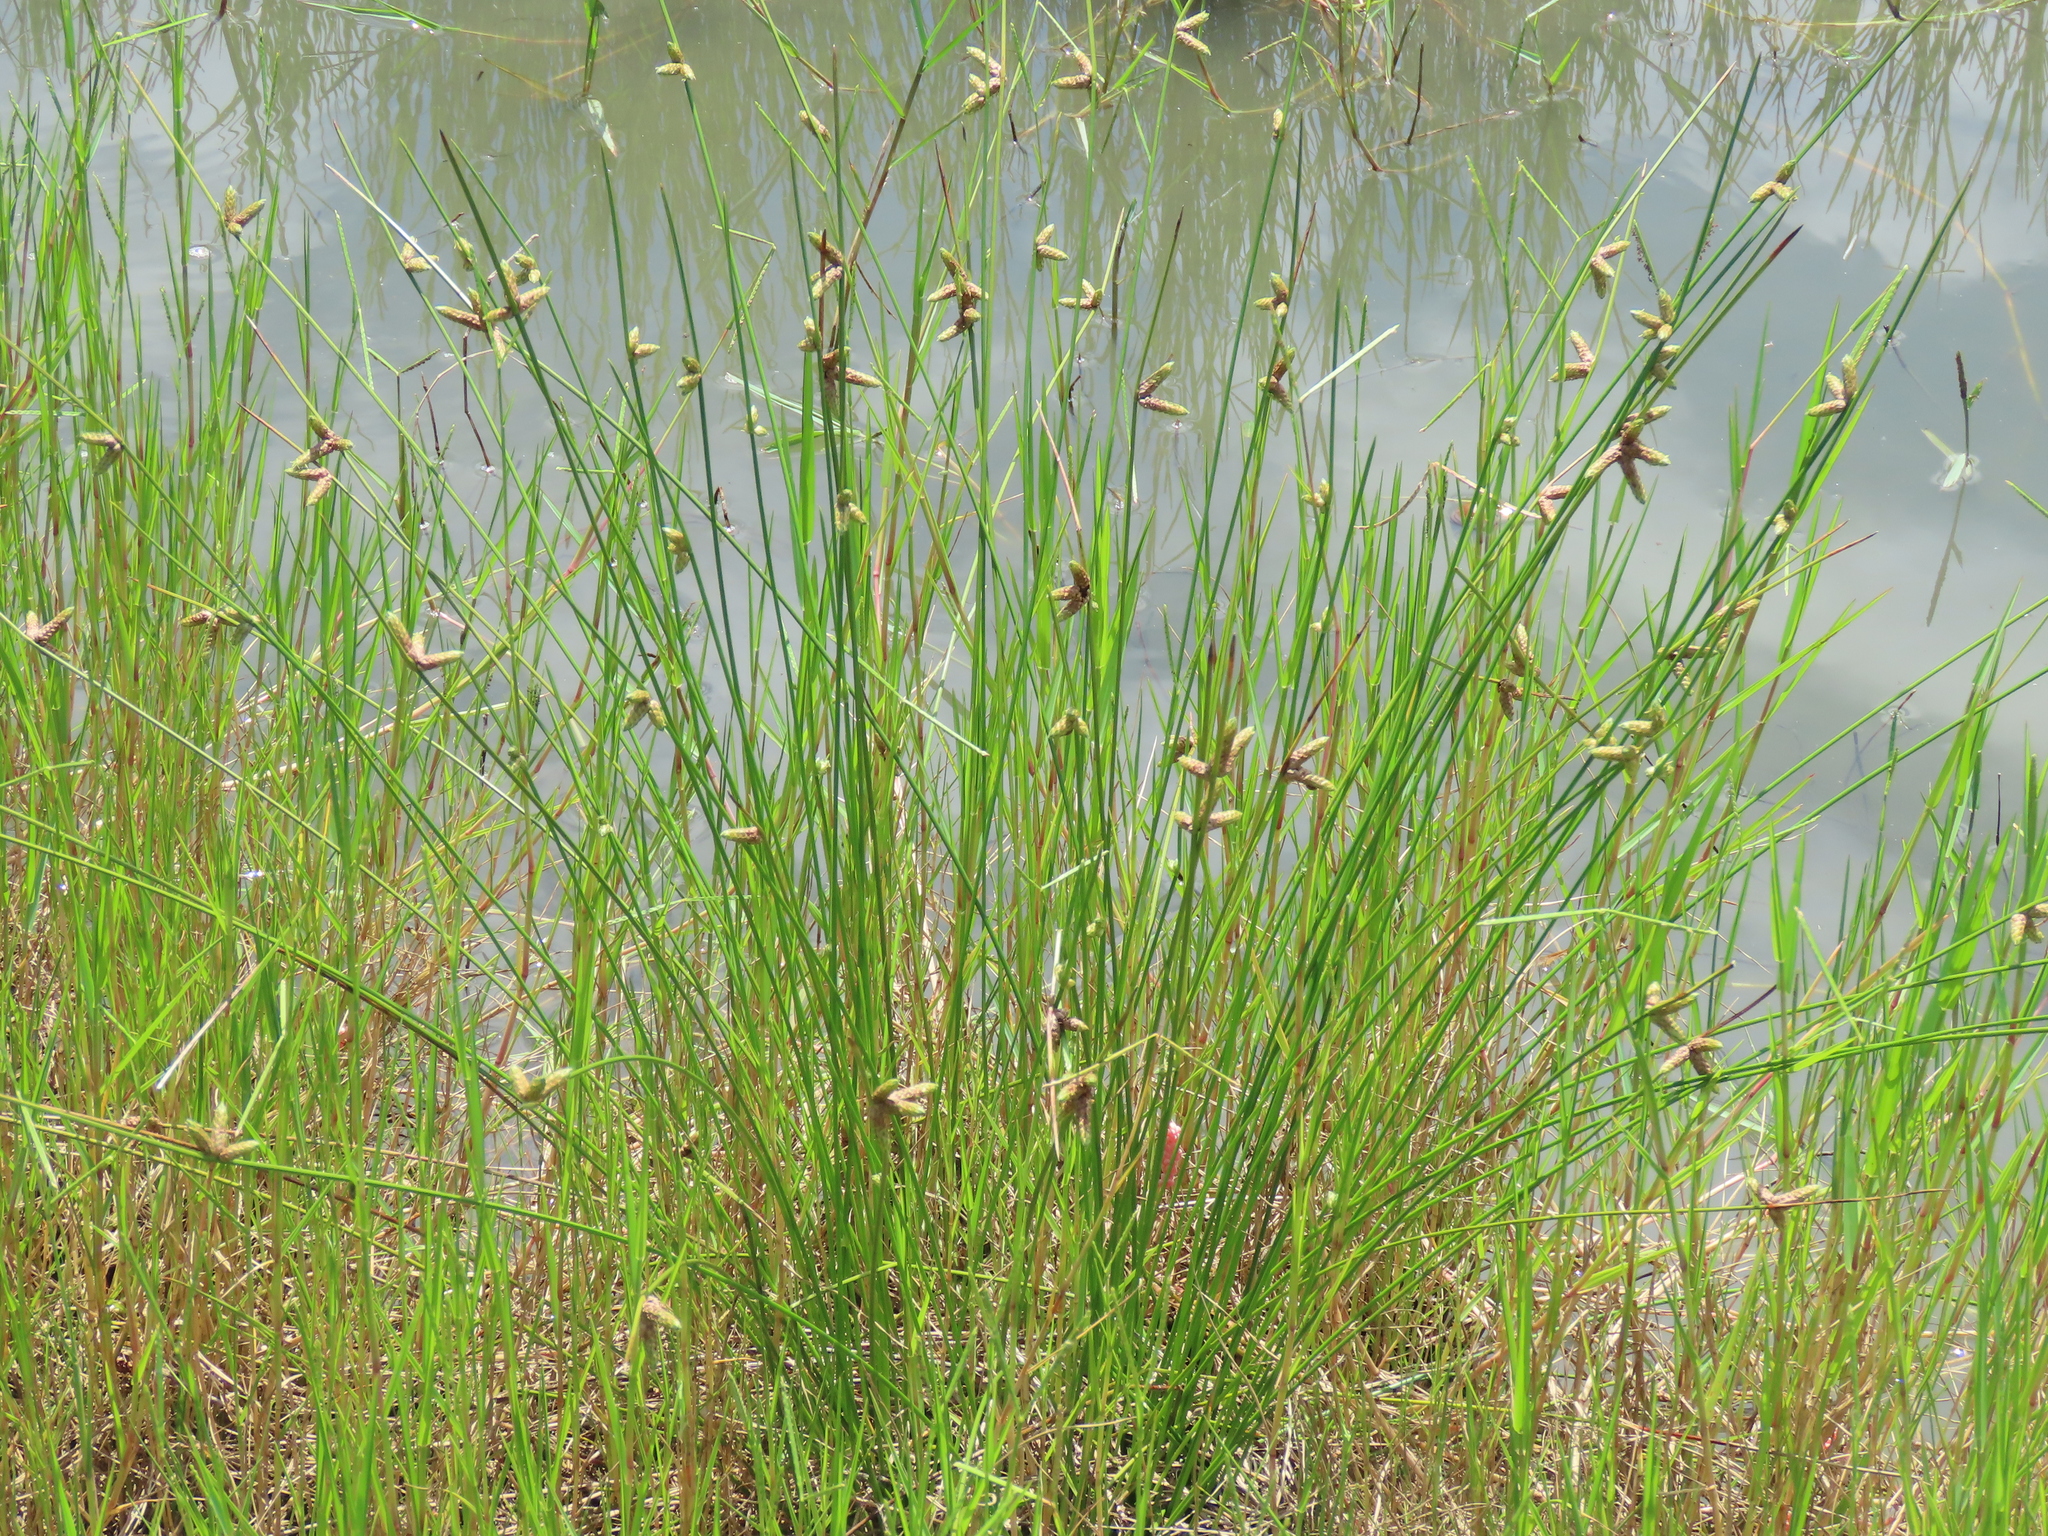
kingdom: Plantae
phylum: Tracheophyta
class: Liliopsida
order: Poales
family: Cyperaceae
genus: Schoenoplectiella
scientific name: Schoenoplectiella juncoides
